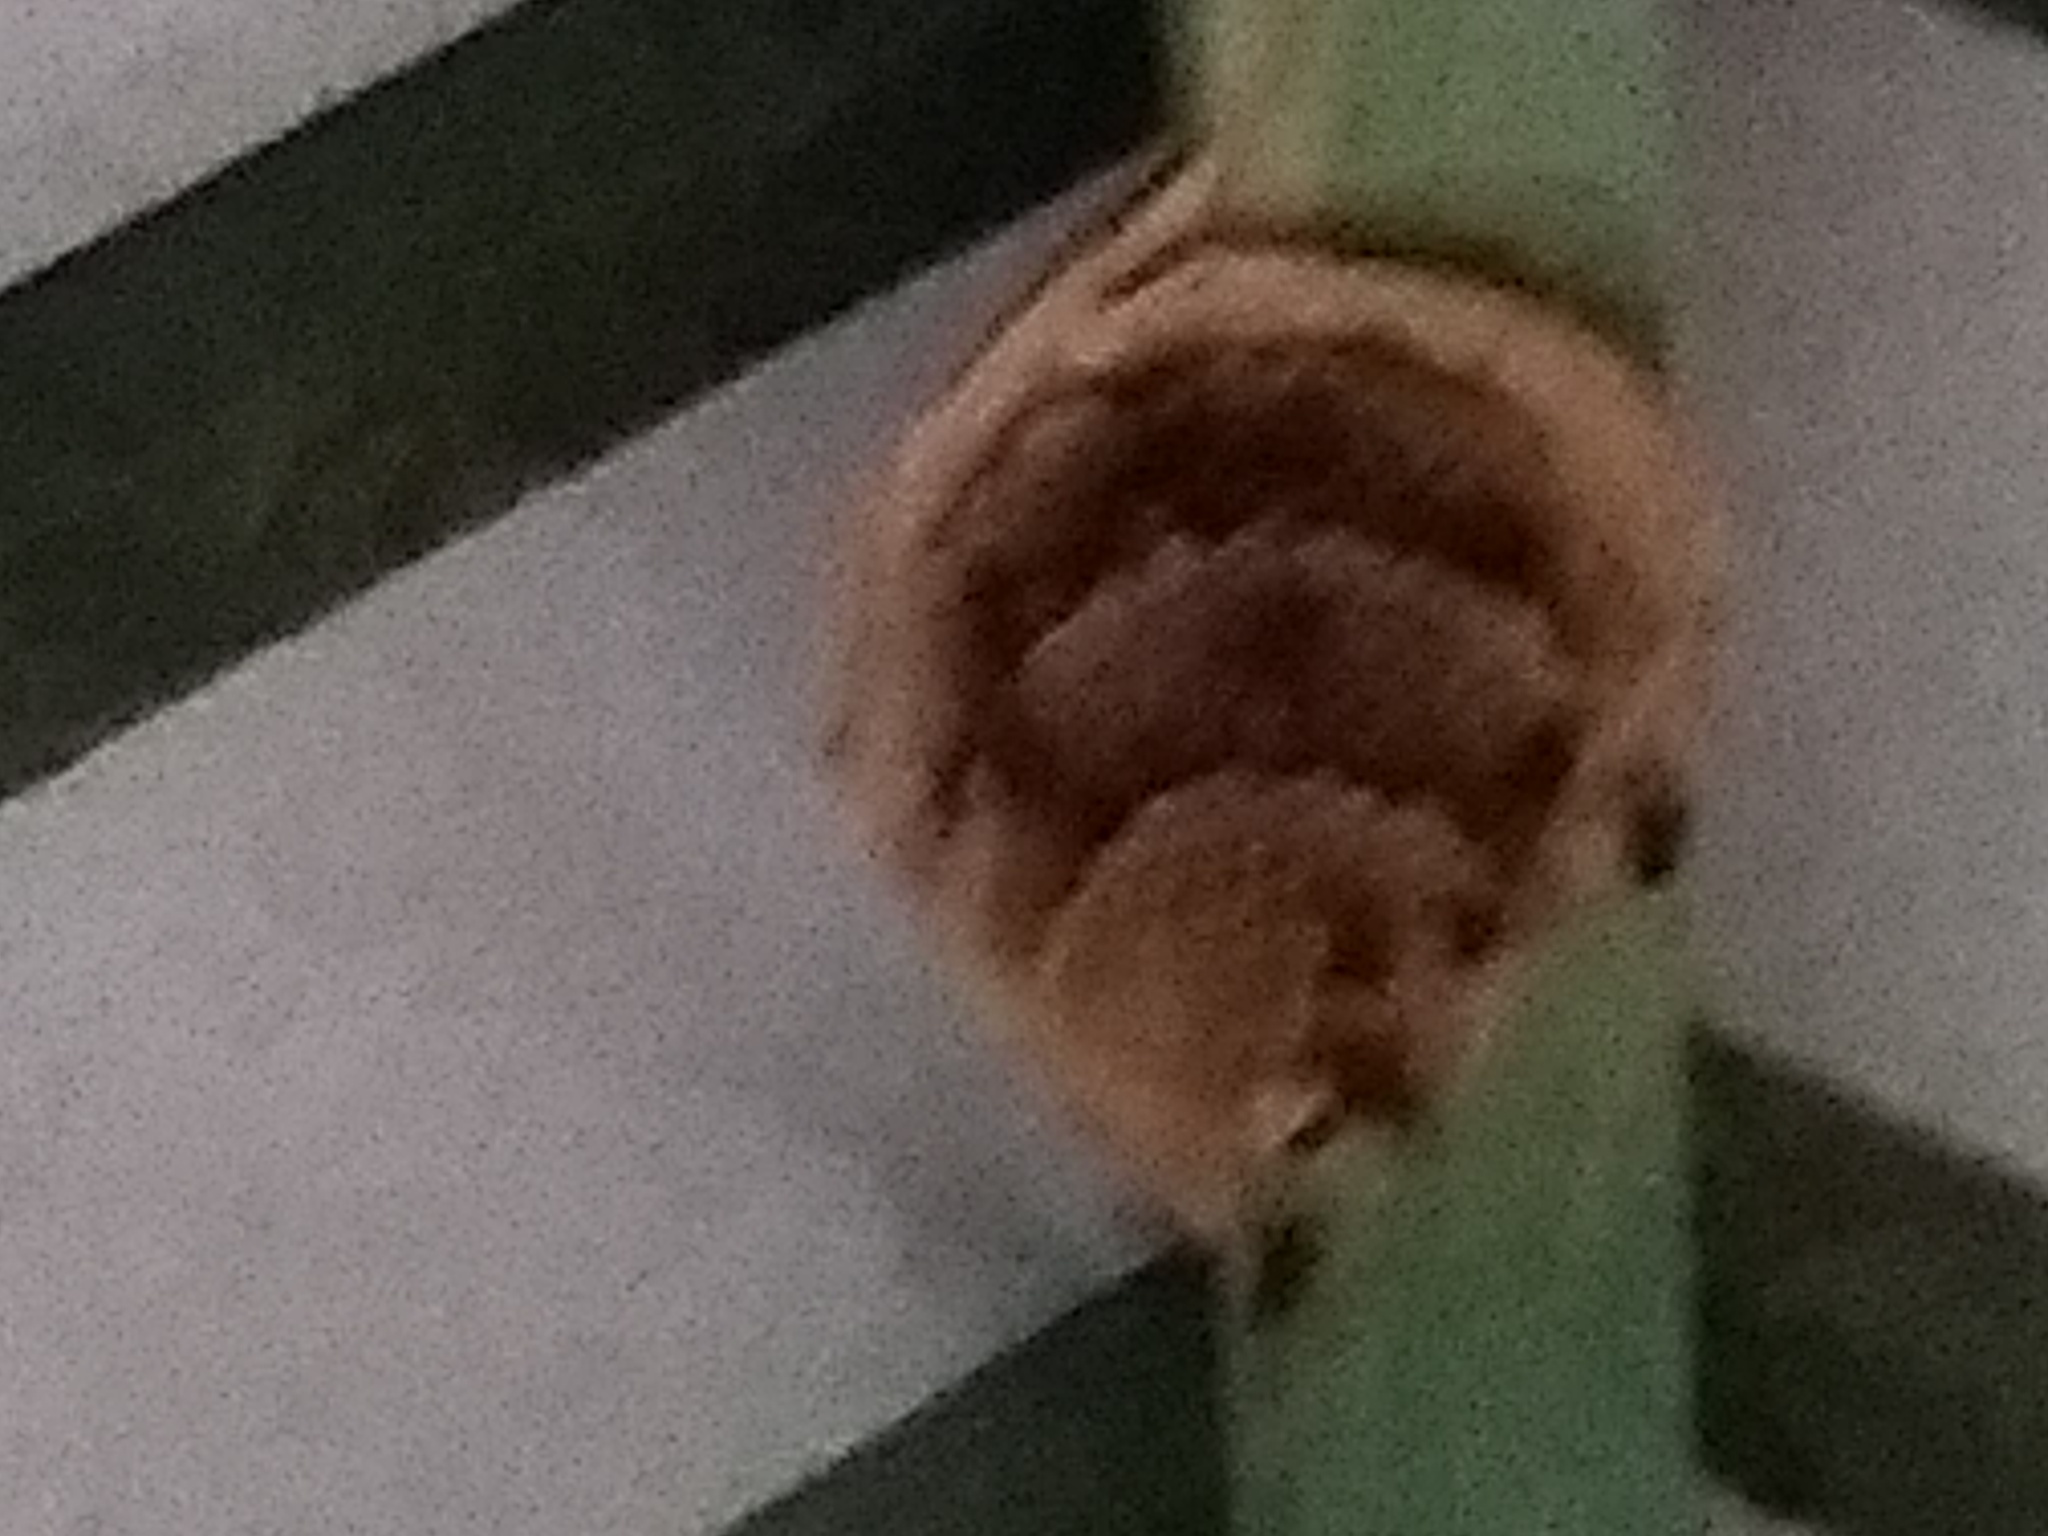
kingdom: Animalia
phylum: Arthropoda
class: Insecta
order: Hymenoptera
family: Vespidae
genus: Vespa
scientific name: Vespa velutina
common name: Asian hornet
